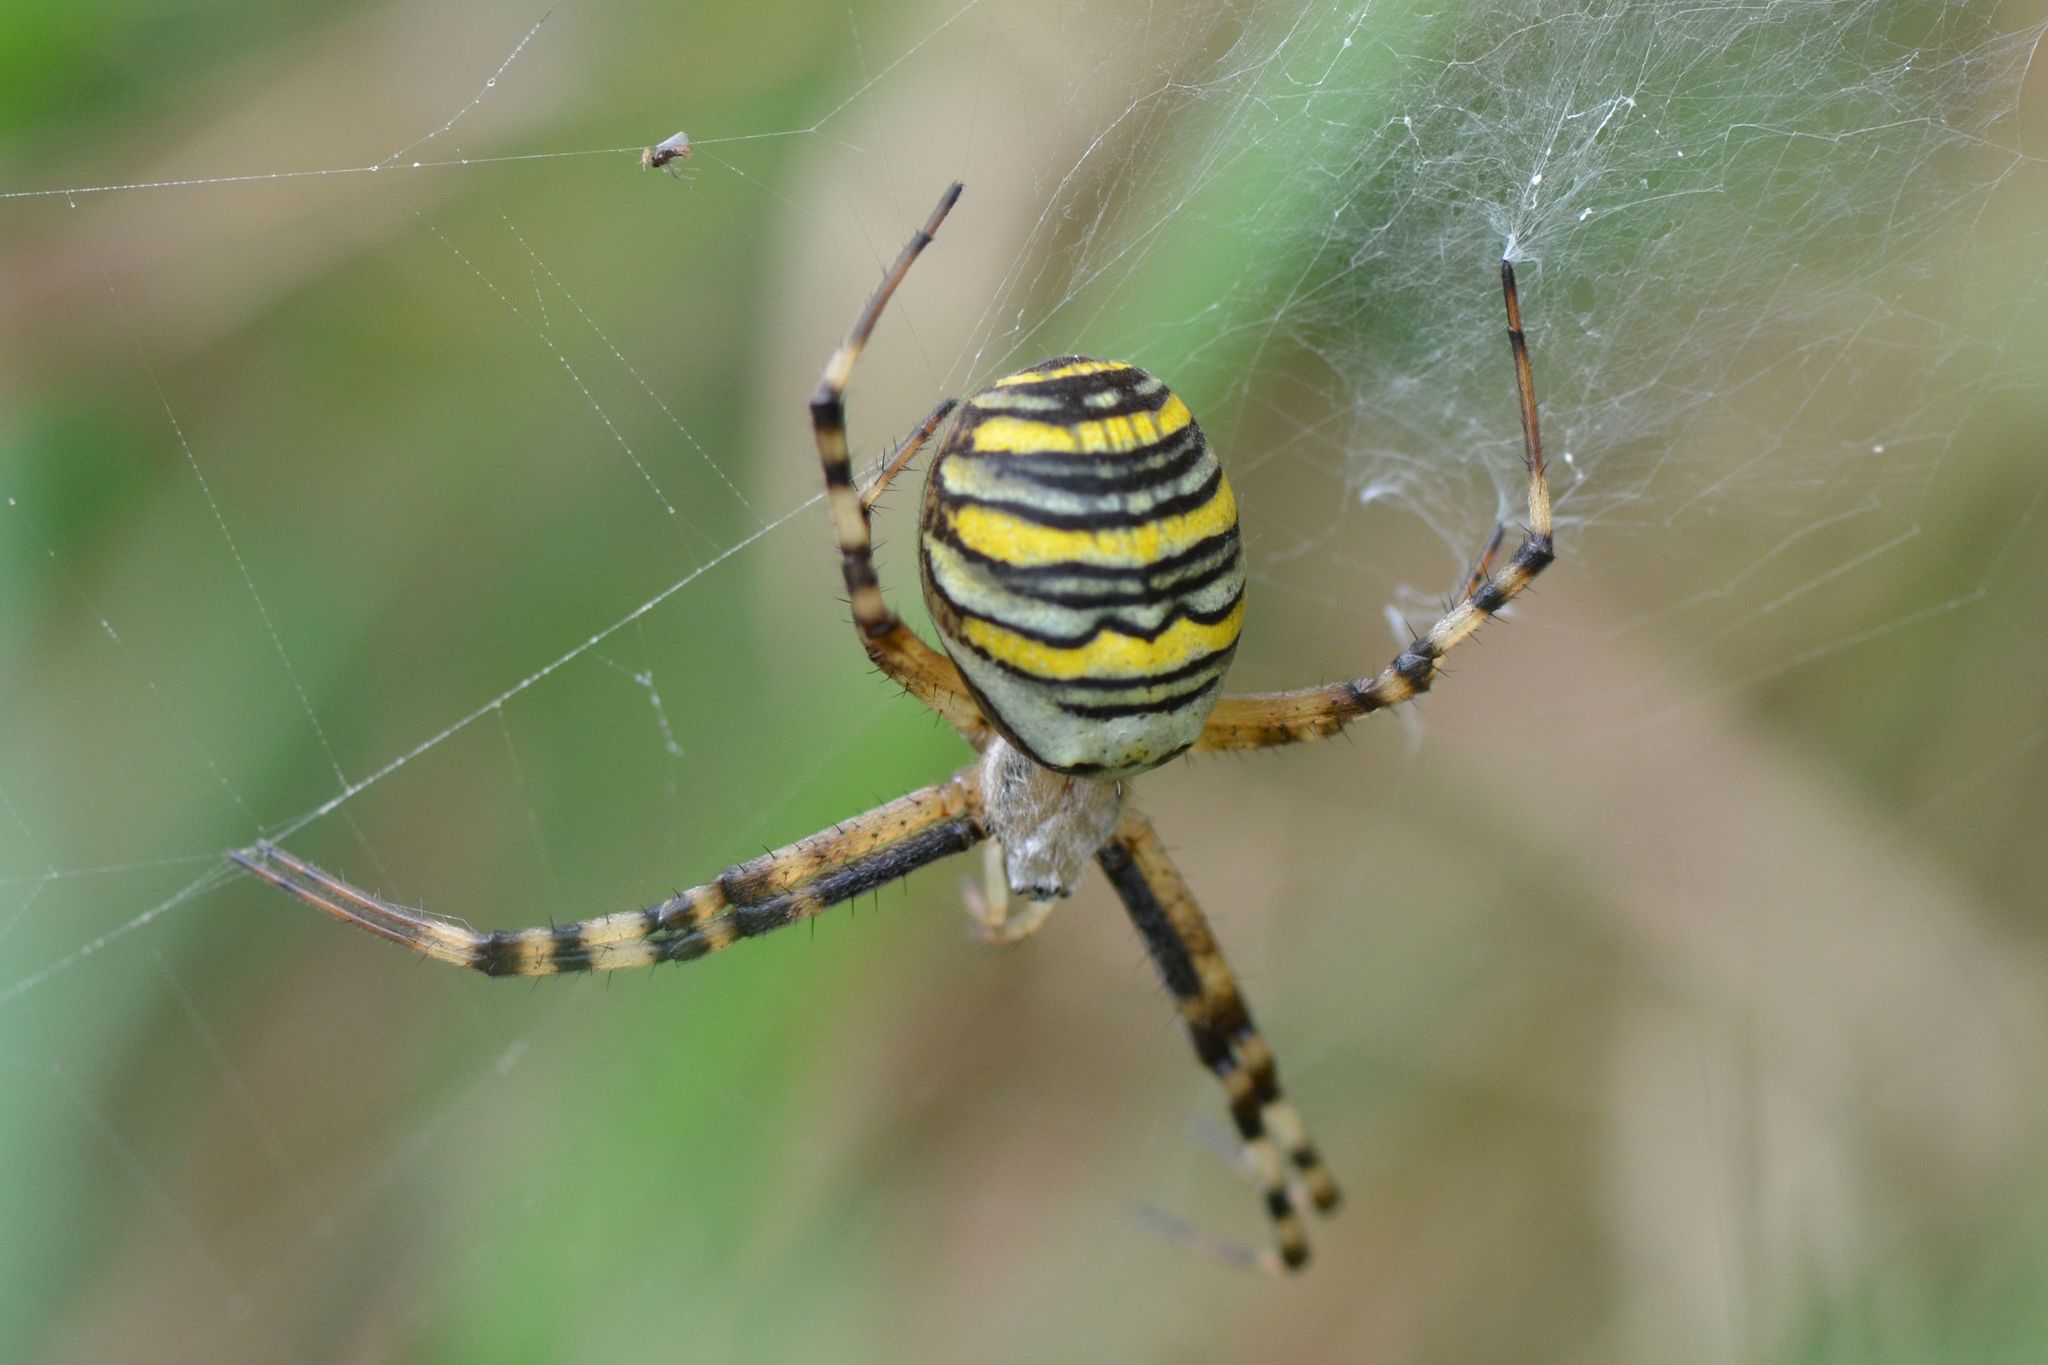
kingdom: Animalia
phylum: Arthropoda
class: Arachnida
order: Araneae
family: Araneidae
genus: Argiope
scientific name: Argiope bruennichi
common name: Wasp spider
